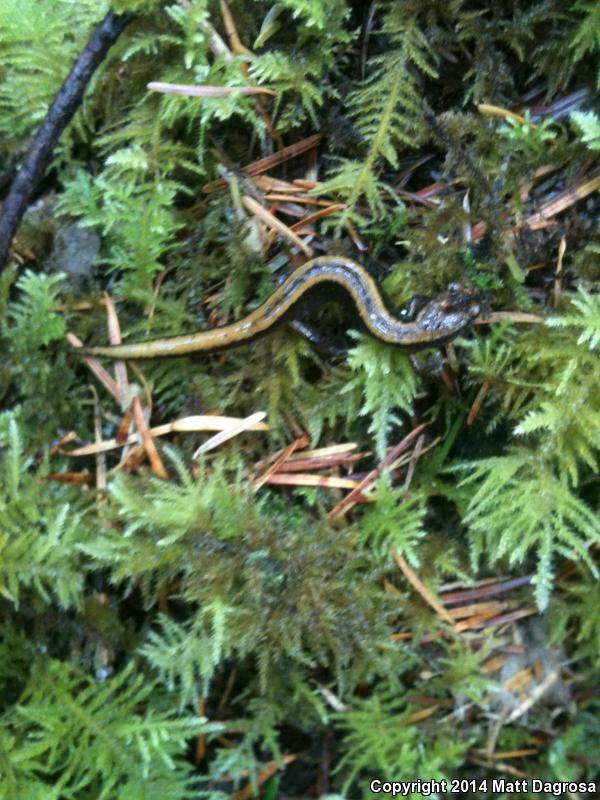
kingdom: Animalia
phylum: Chordata
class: Amphibia
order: Caudata
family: Plethodontidae
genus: Plethodon
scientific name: Plethodon vehiculum
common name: Western red-backed salamander
